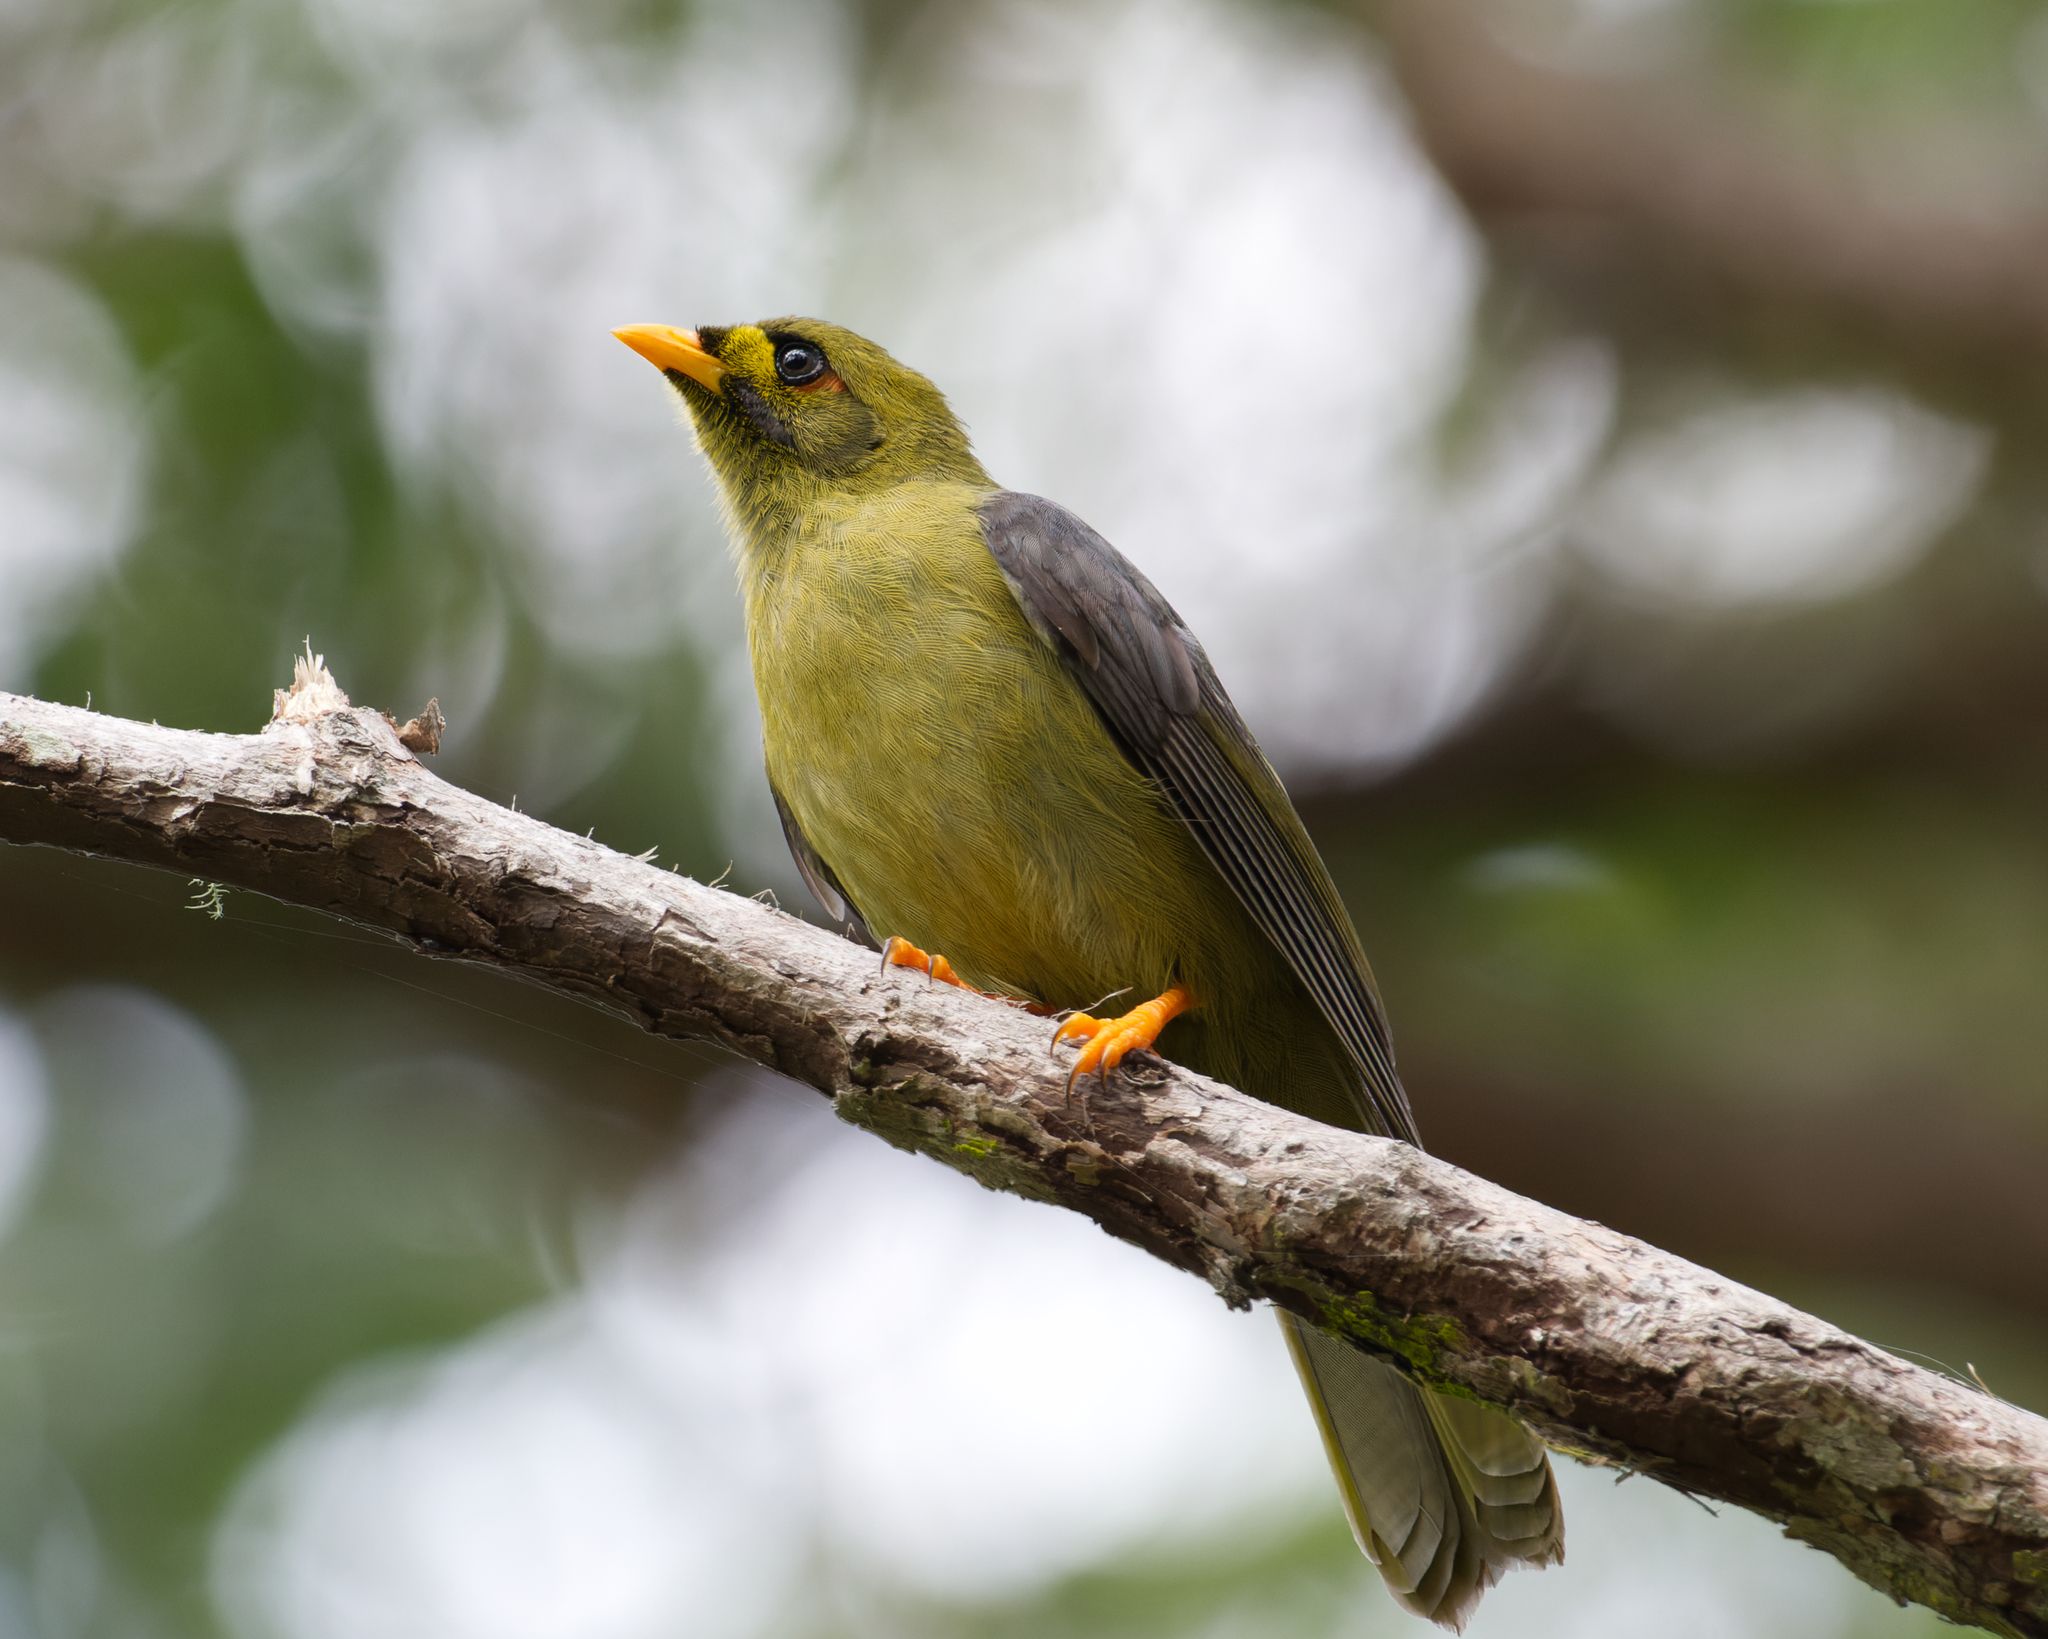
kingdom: Animalia
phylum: Chordata
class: Aves
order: Passeriformes
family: Meliphagidae
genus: Manorina
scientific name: Manorina melanophrys
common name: Bell miner
